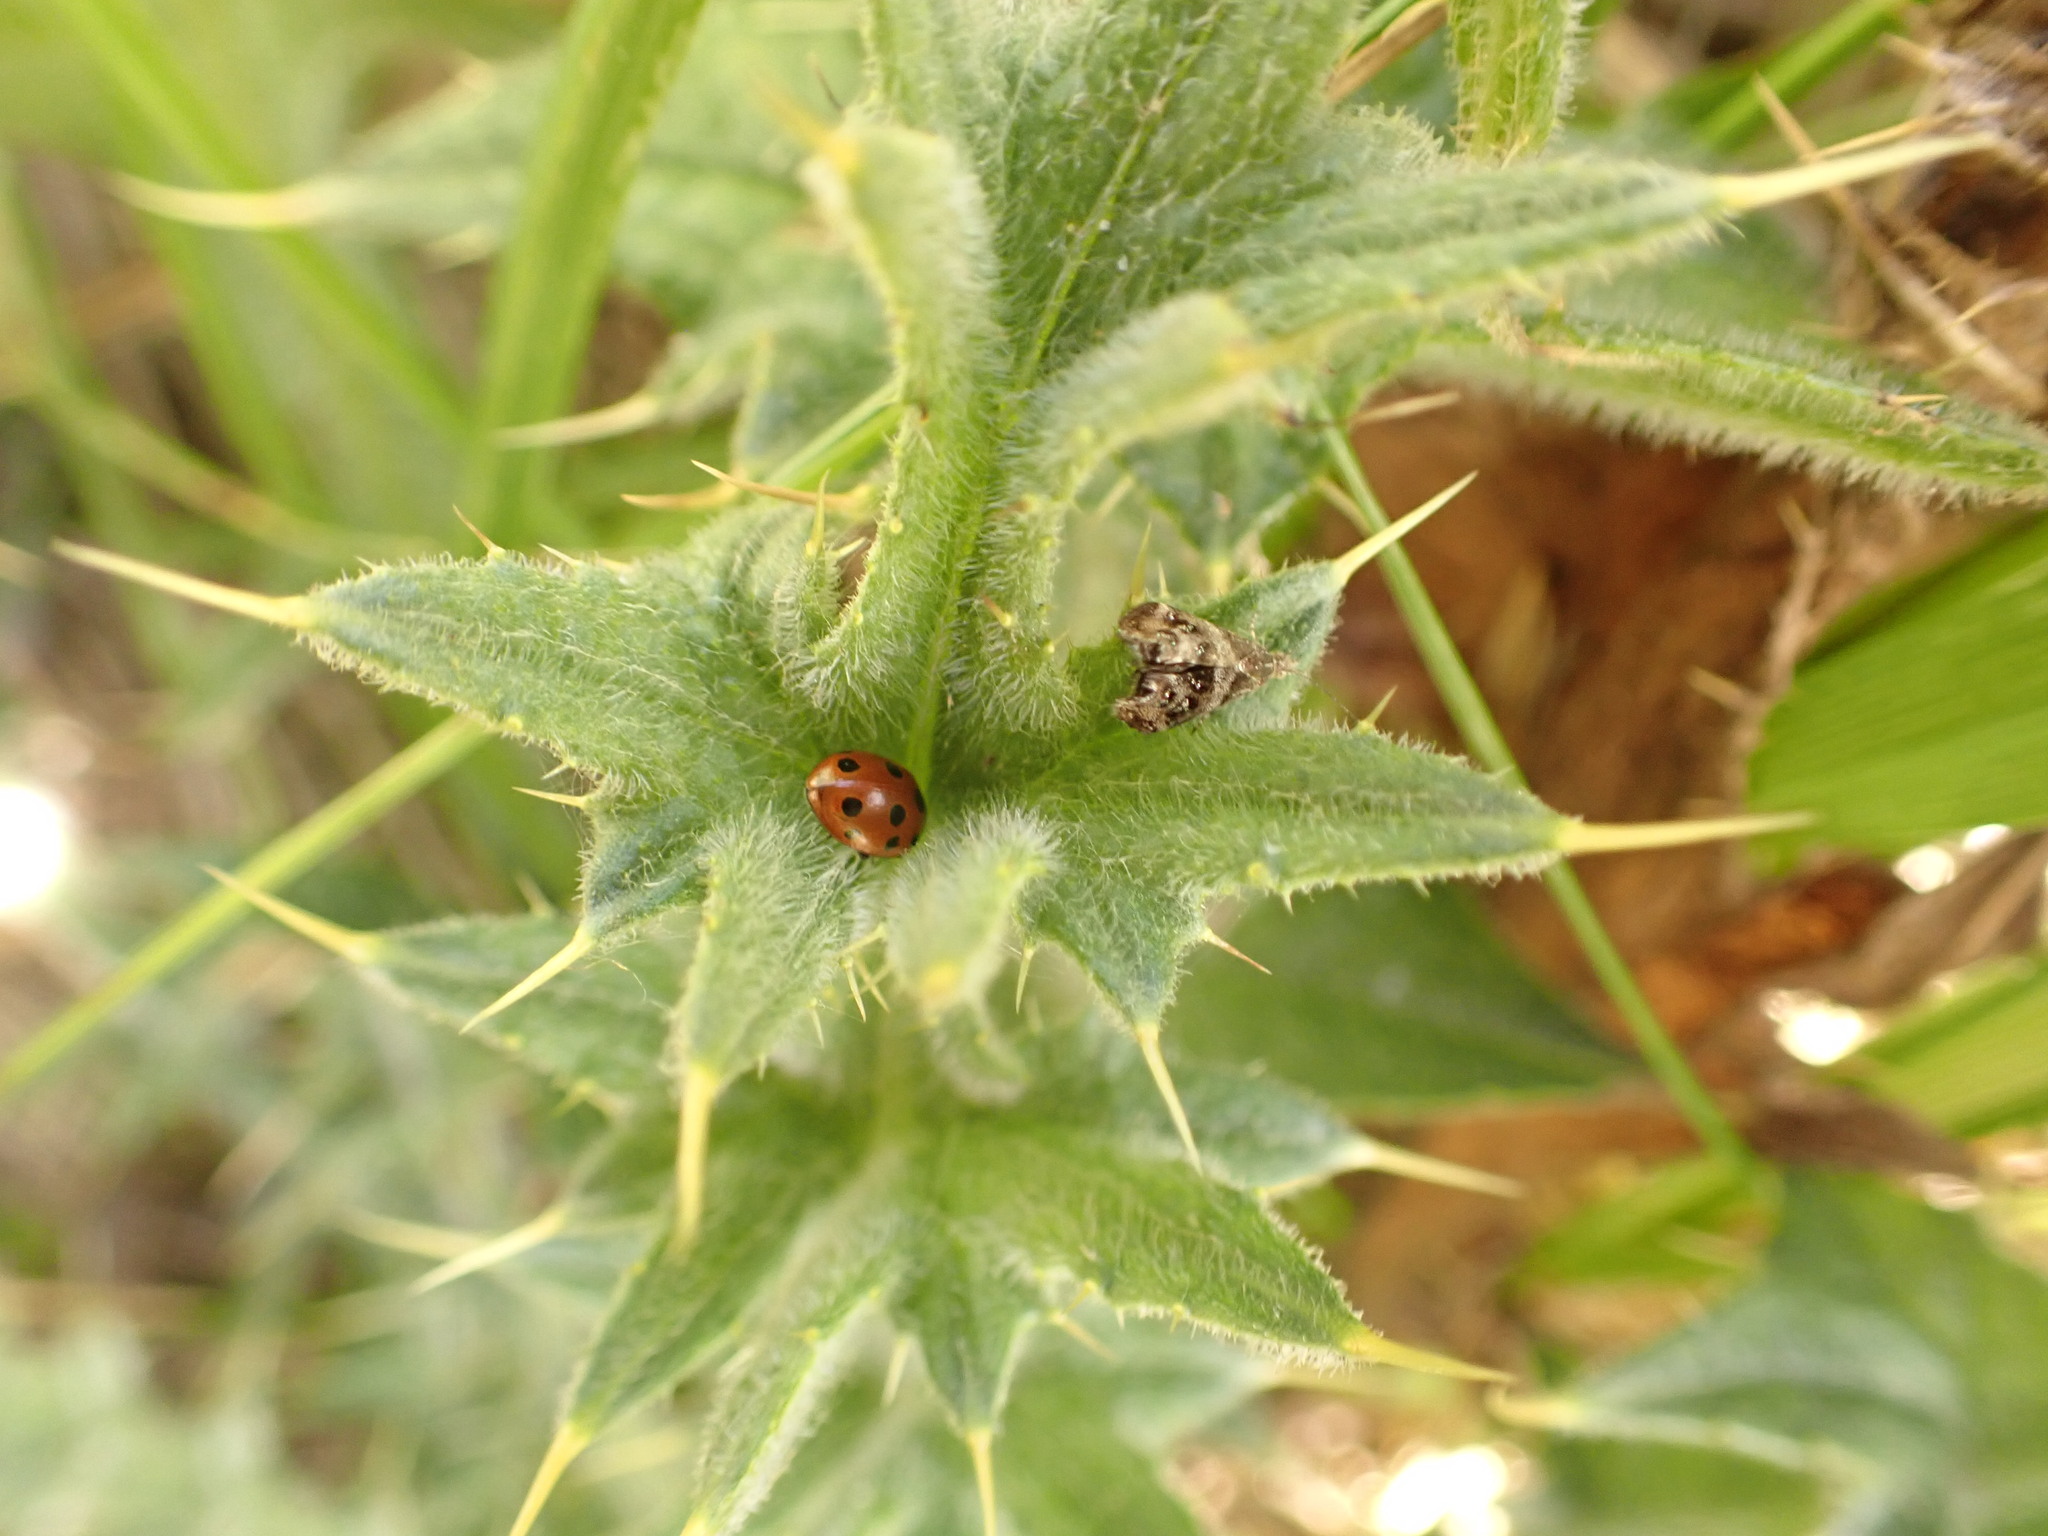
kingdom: Animalia
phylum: Arthropoda
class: Insecta
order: Coleoptera
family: Coccinellidae
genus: Coccinella
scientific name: Coccinella undecimpunctata
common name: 11-spot ladybird
